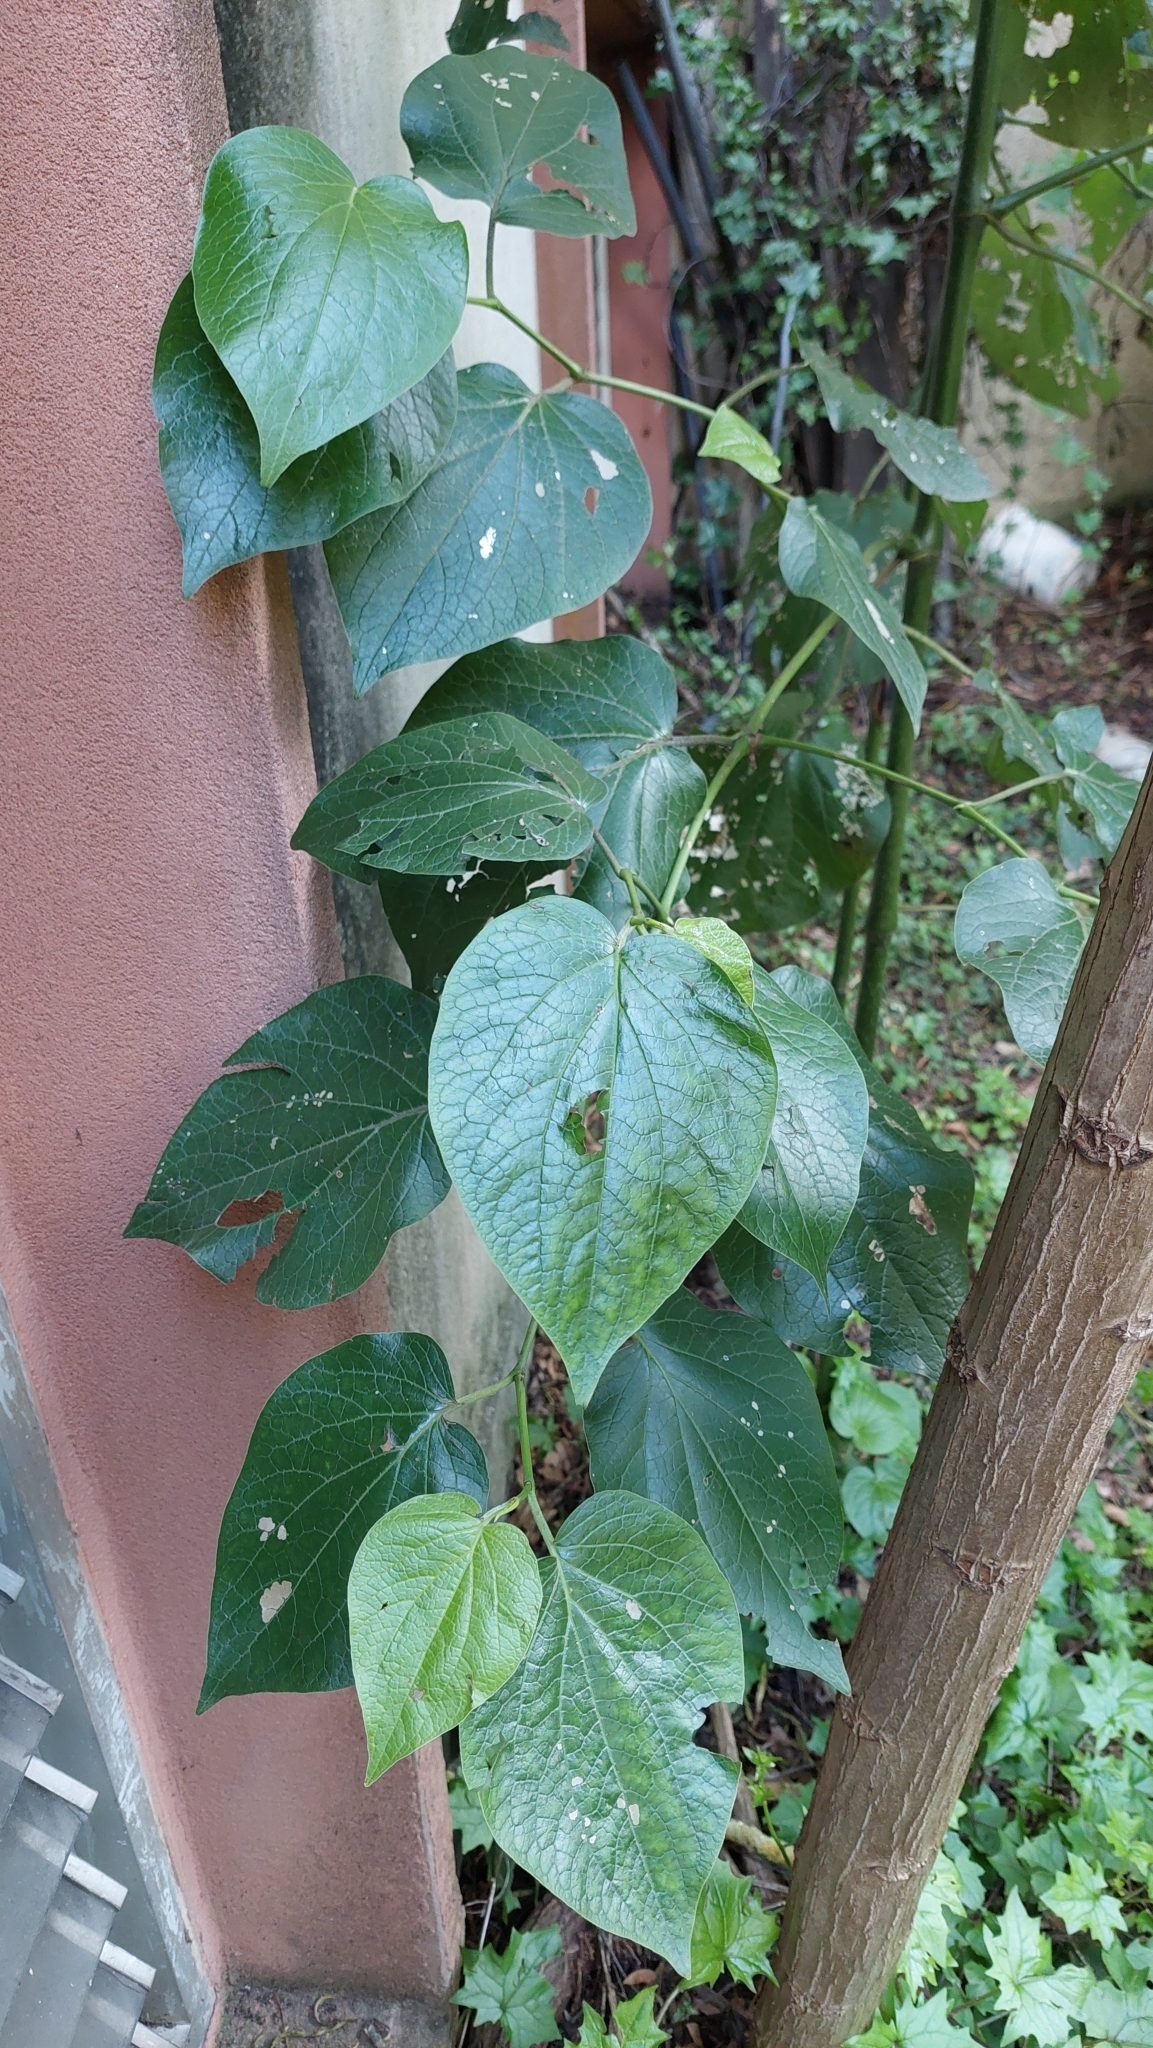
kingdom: Plantae
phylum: Tracheophyta
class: Magnoliopsida
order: Piperales
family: Piperaceae
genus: Piper
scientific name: Piper barbatum
